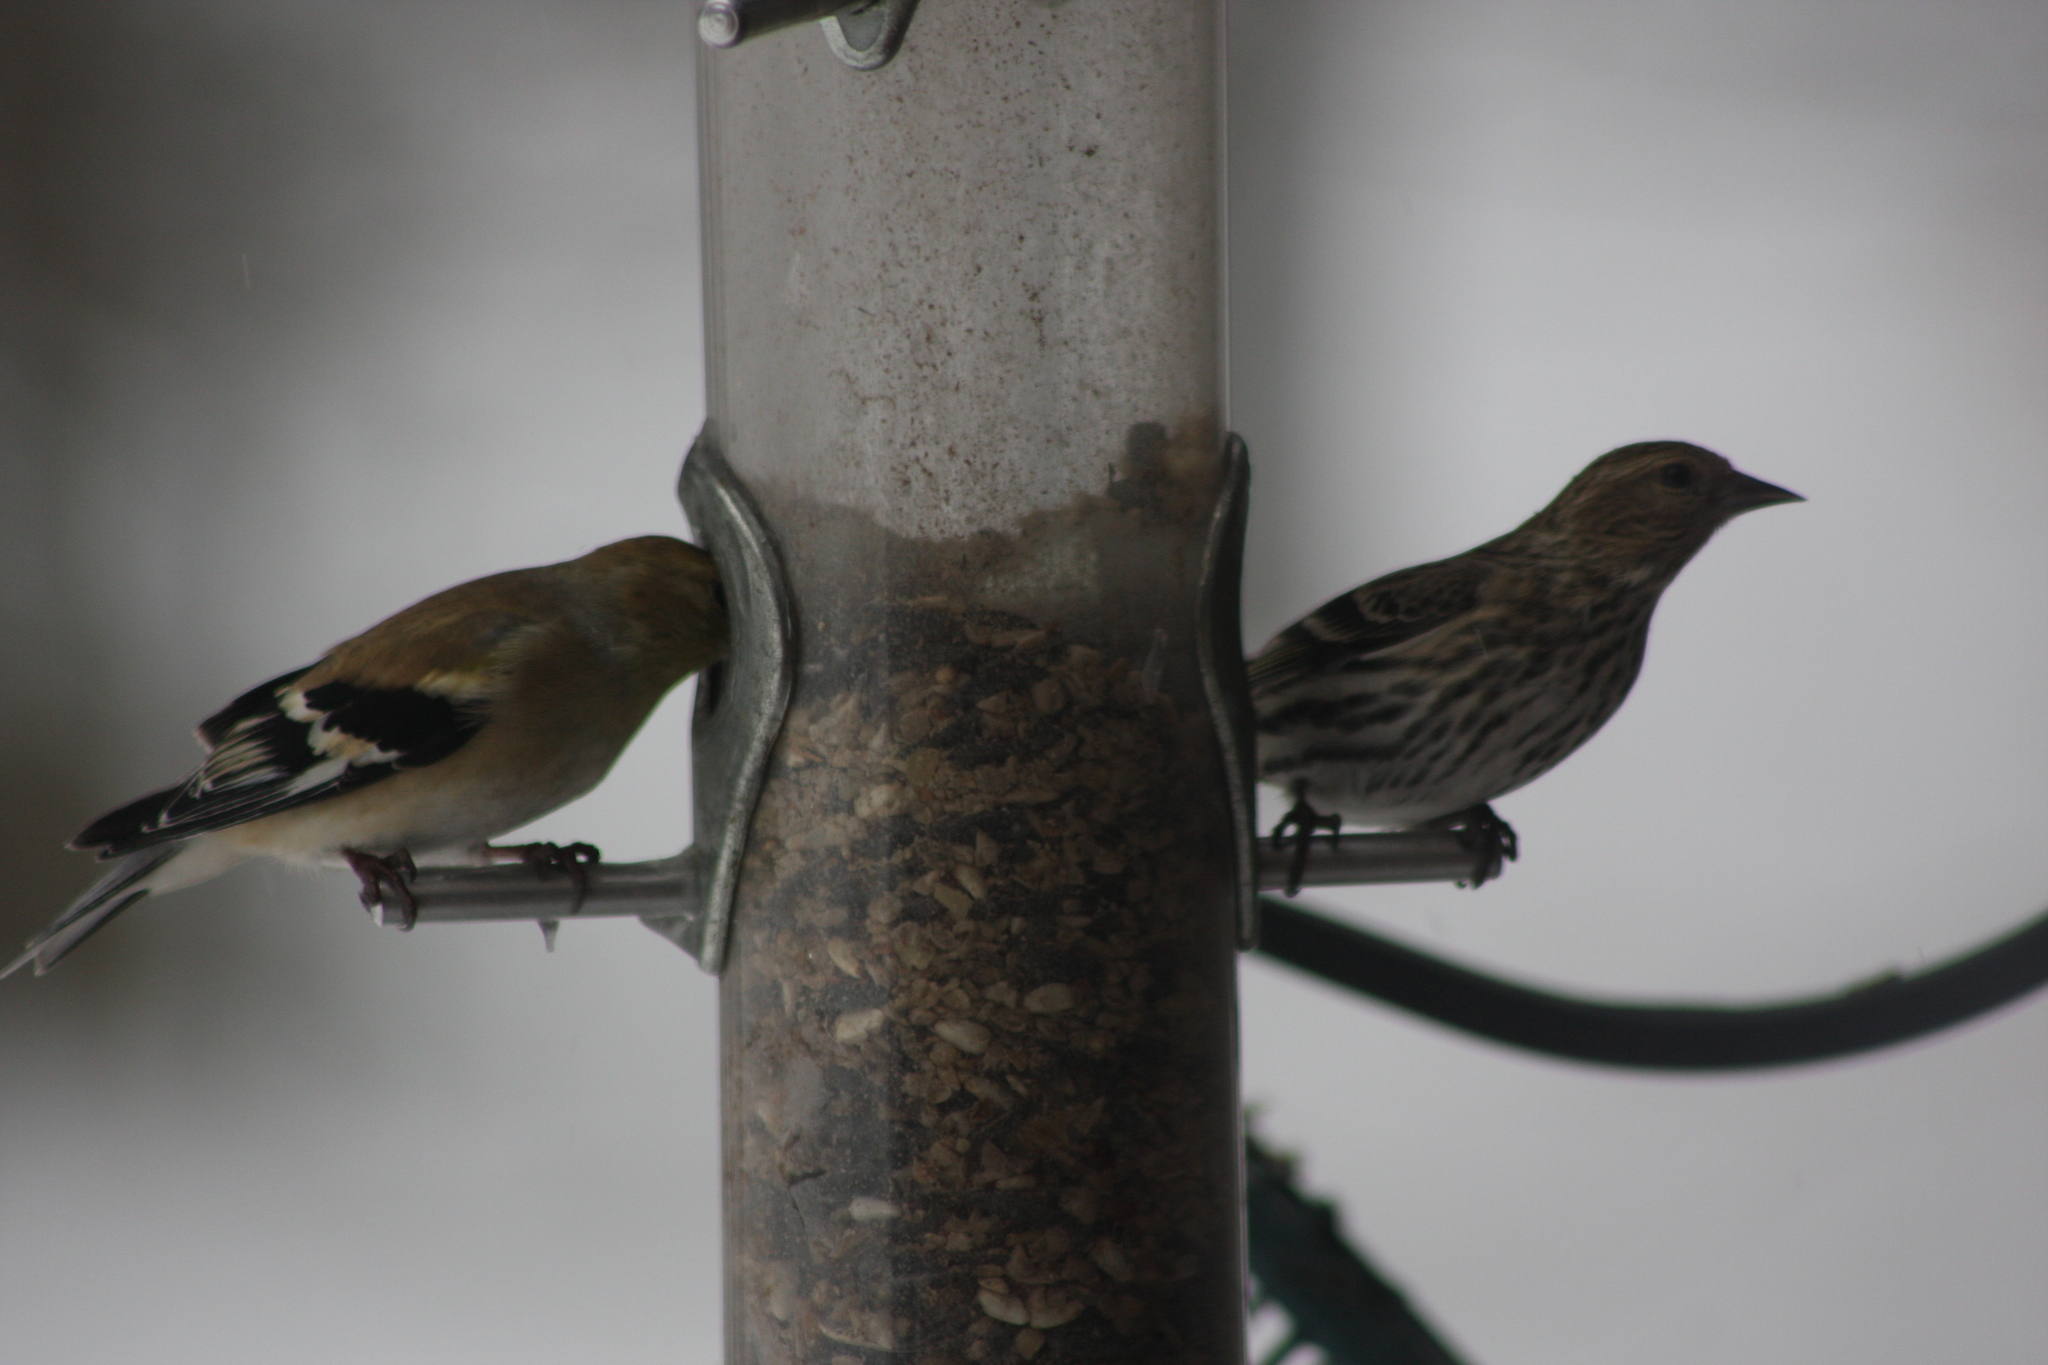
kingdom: Animalia
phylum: Chordata
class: Aves
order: Passeriformes
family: Fringillidae
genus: Spinus
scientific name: Spinus pinus
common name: Pine siskin
